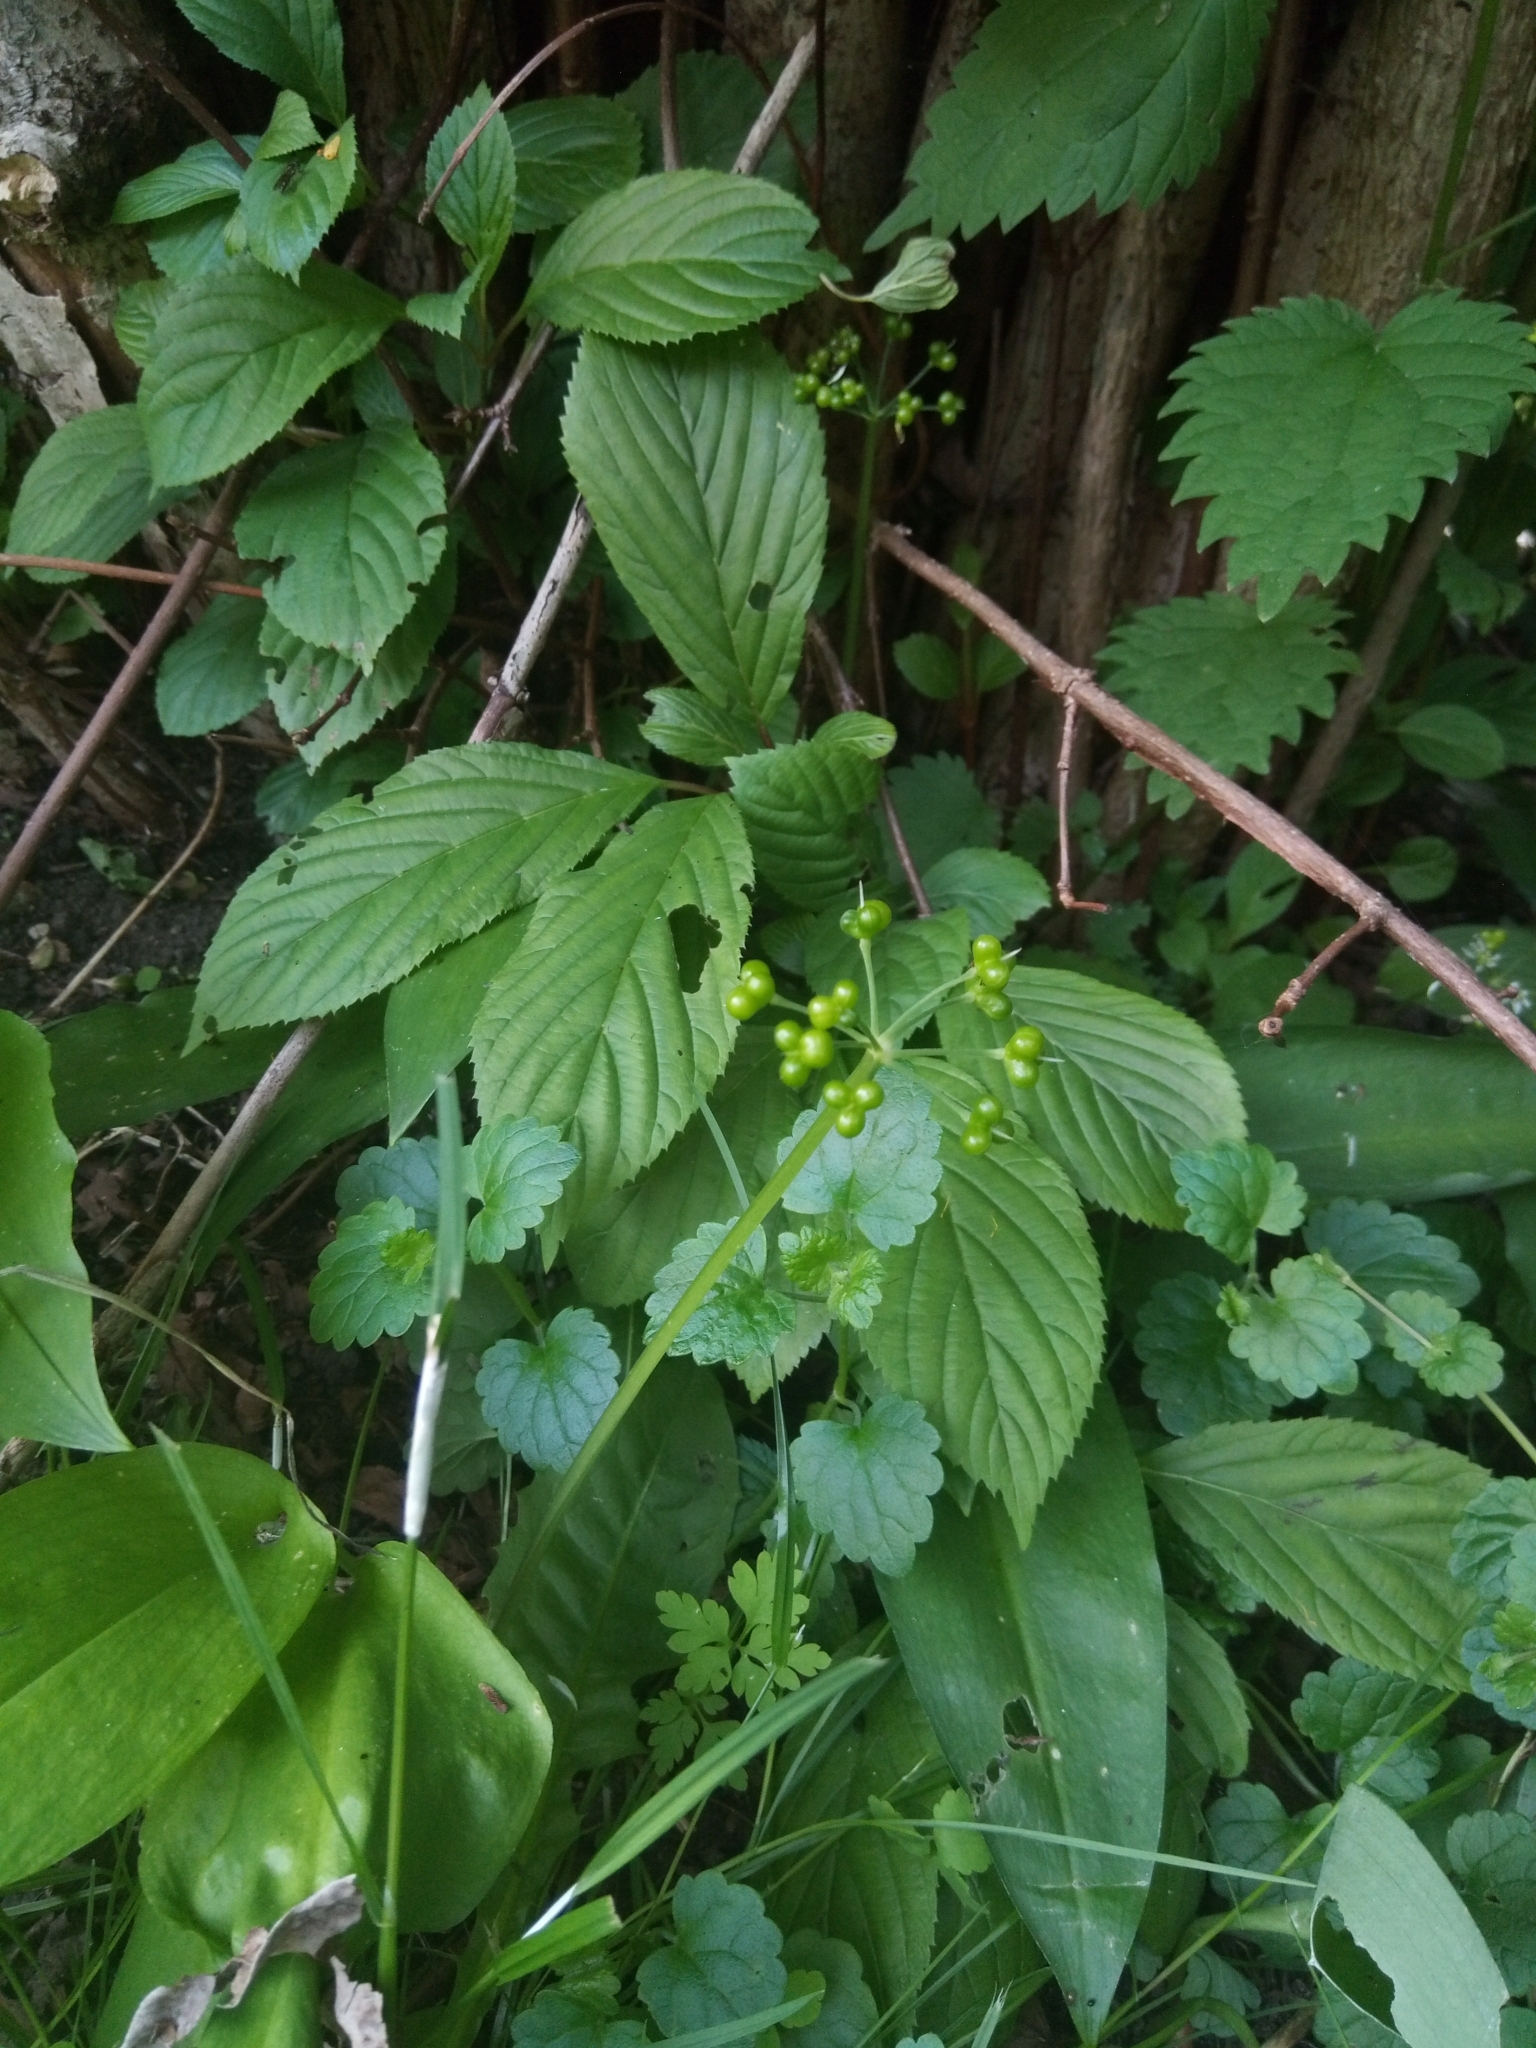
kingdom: Plantae
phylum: Tracheophyta
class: Liliopsida
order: Asparagales
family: Amaryllidaceae
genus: Allium
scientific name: Allium ursinum
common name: Ramsons
